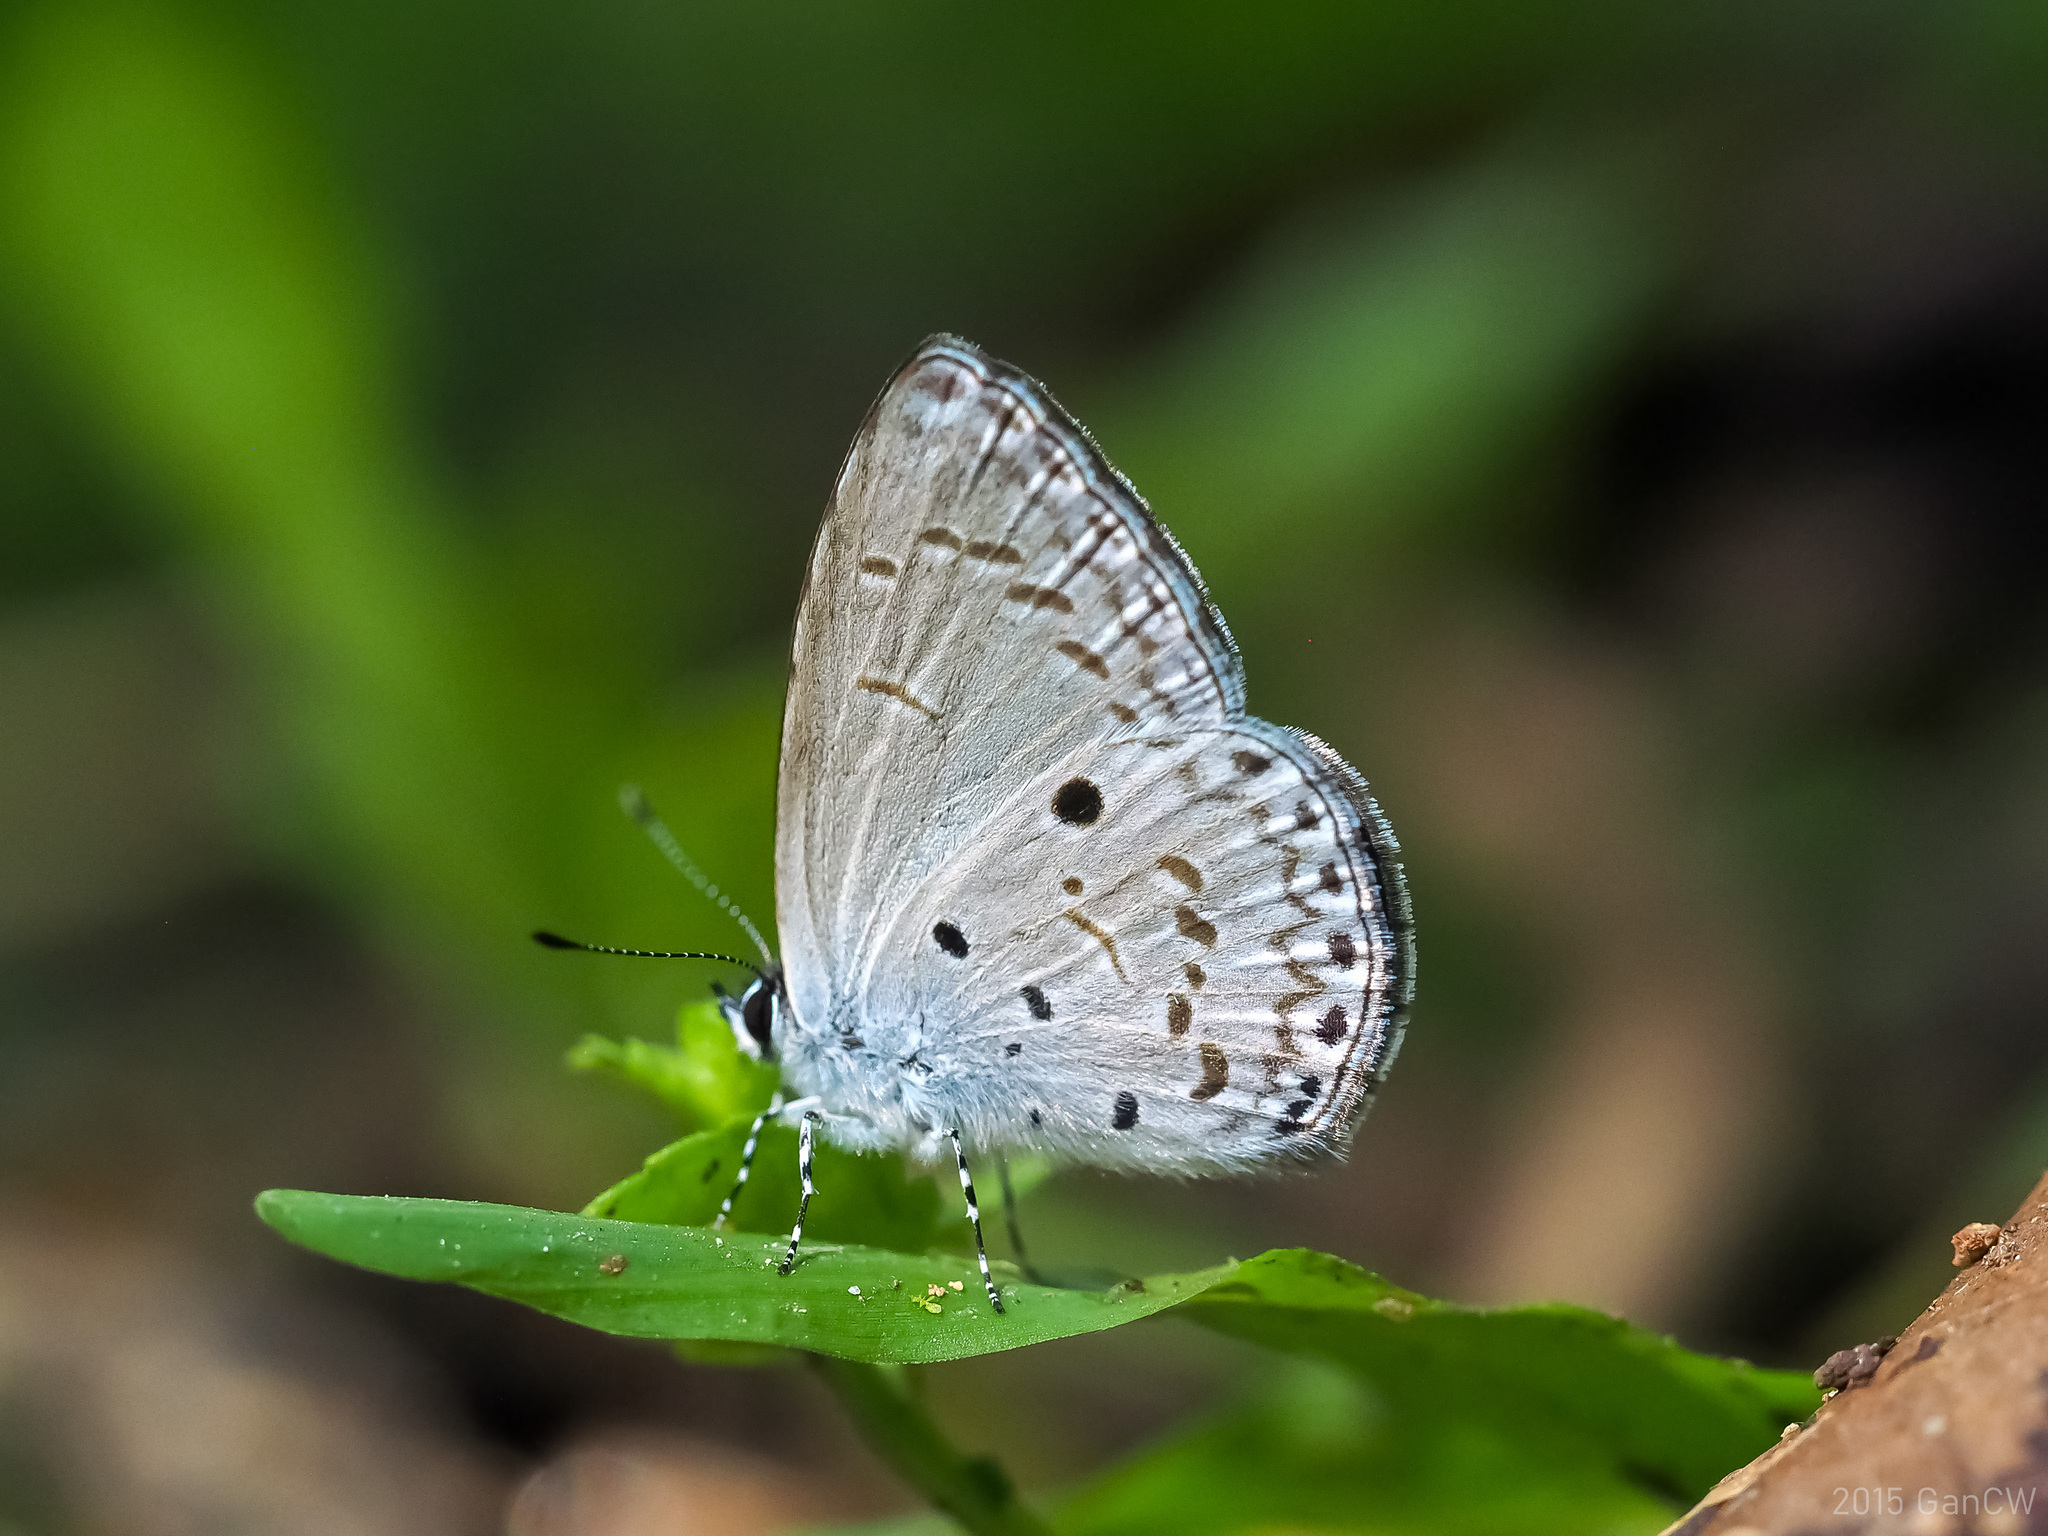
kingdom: Animalia
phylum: Arthropoda
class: Insecta
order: Lepidoptera
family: Lycaenidae
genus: Udara
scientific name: Udara
